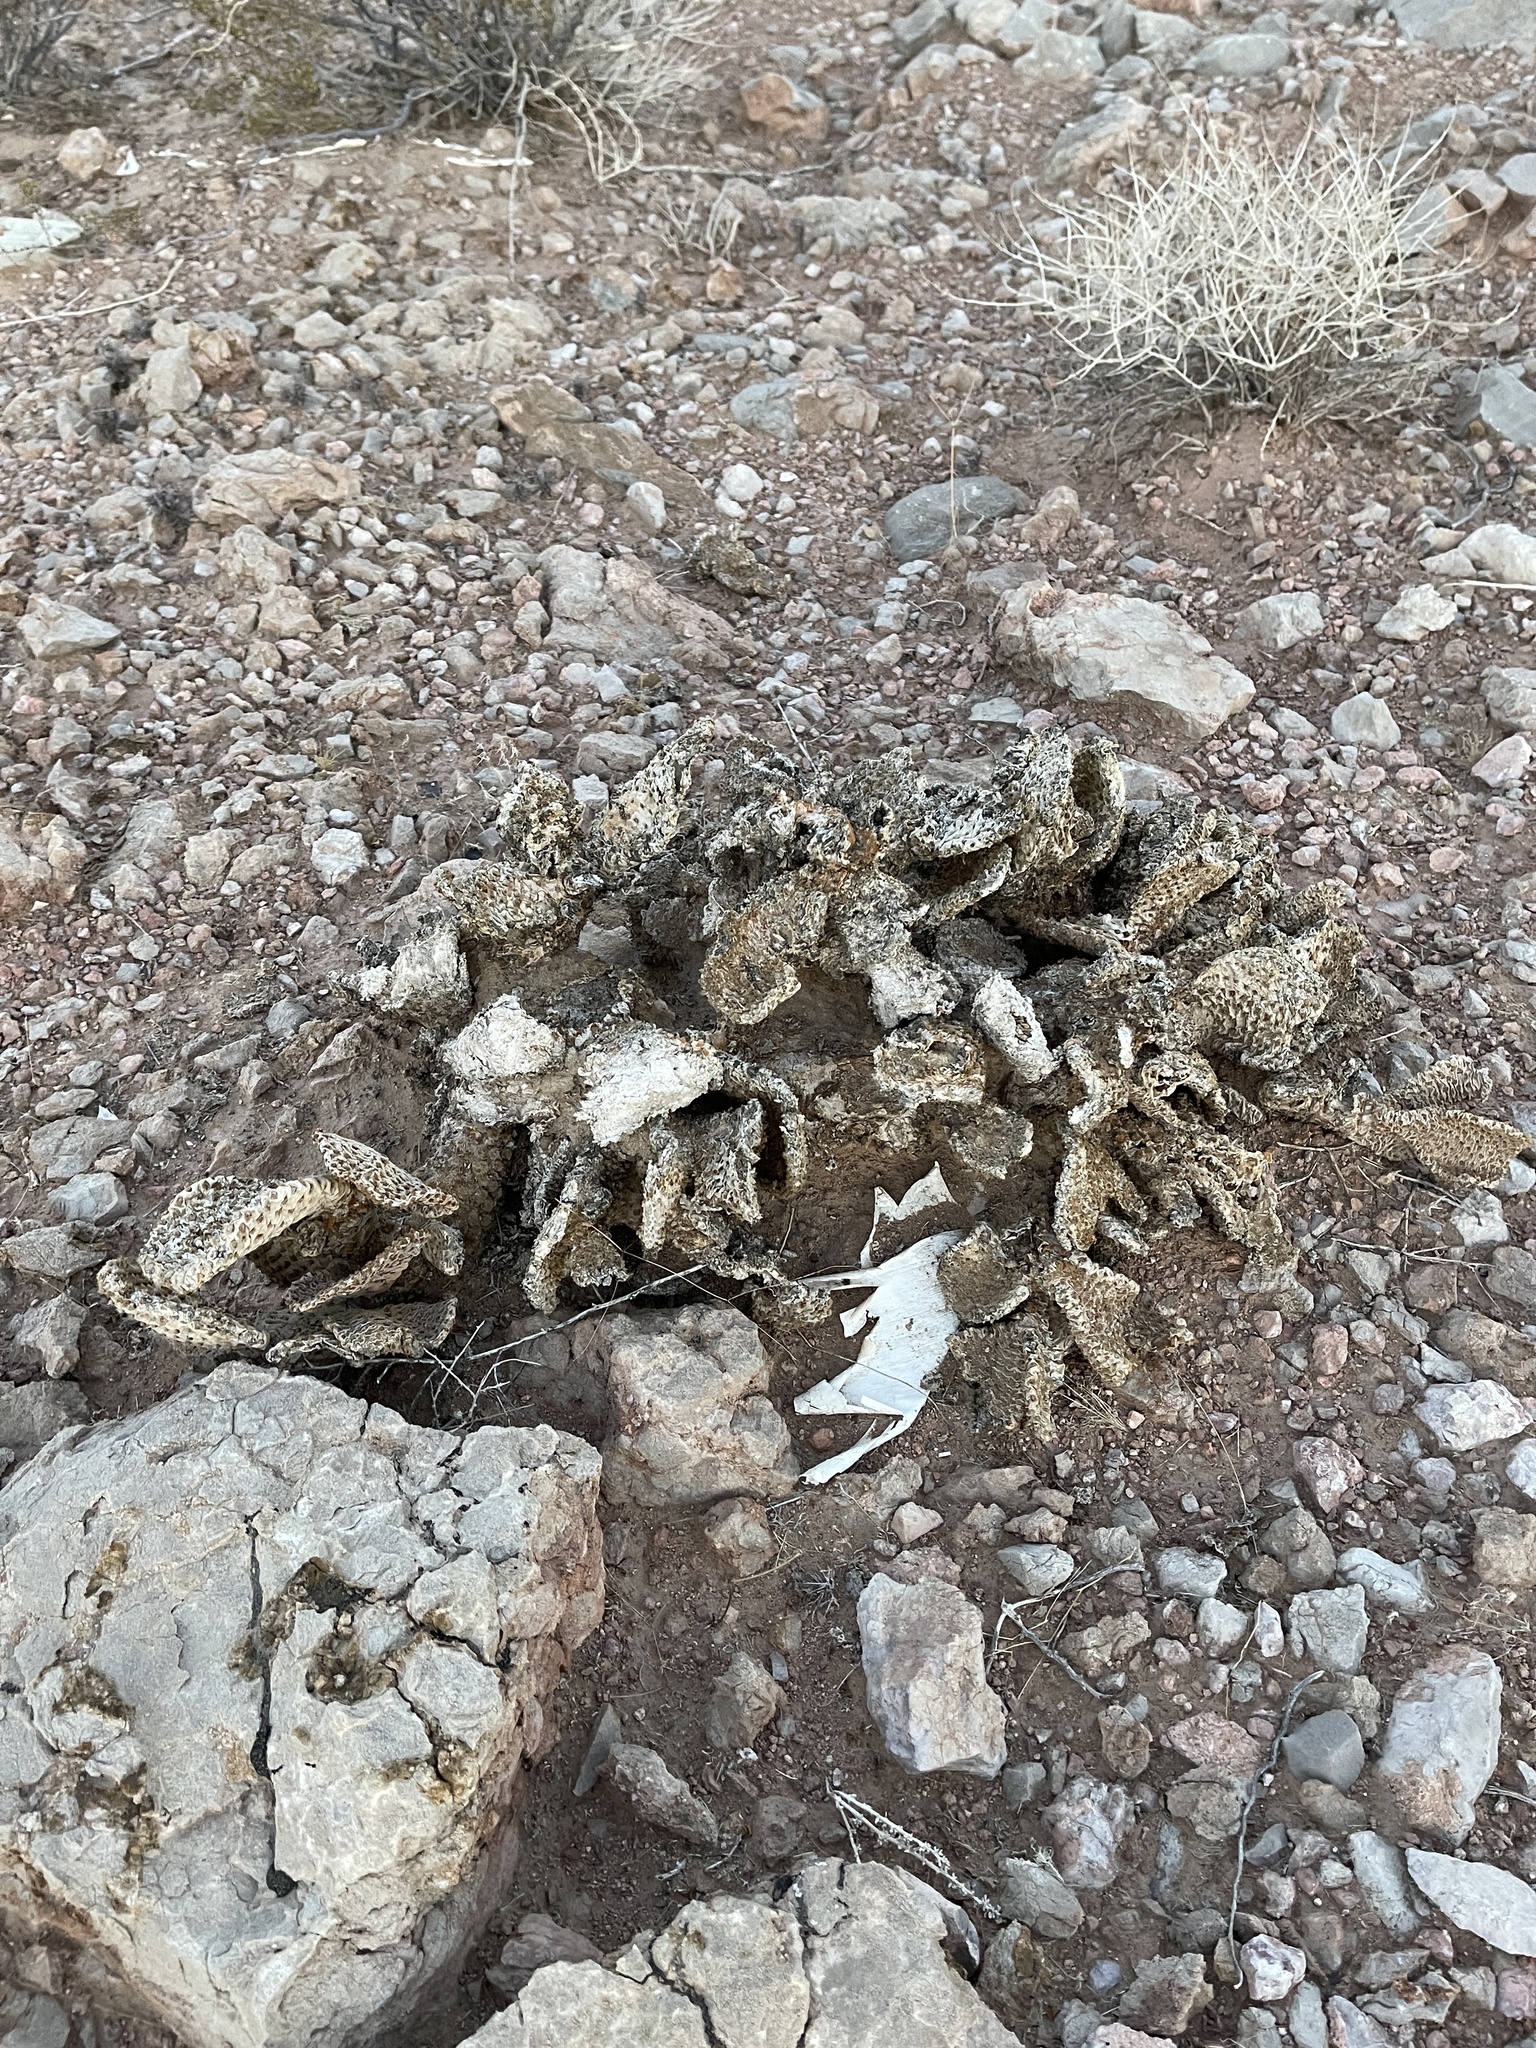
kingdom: Plantae
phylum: Tracheophyta
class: Magnoliopsida
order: Caryophyllales
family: Cactaceae
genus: Opuntia
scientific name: Opuntia basilaris
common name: Beavertail prickly-pear
